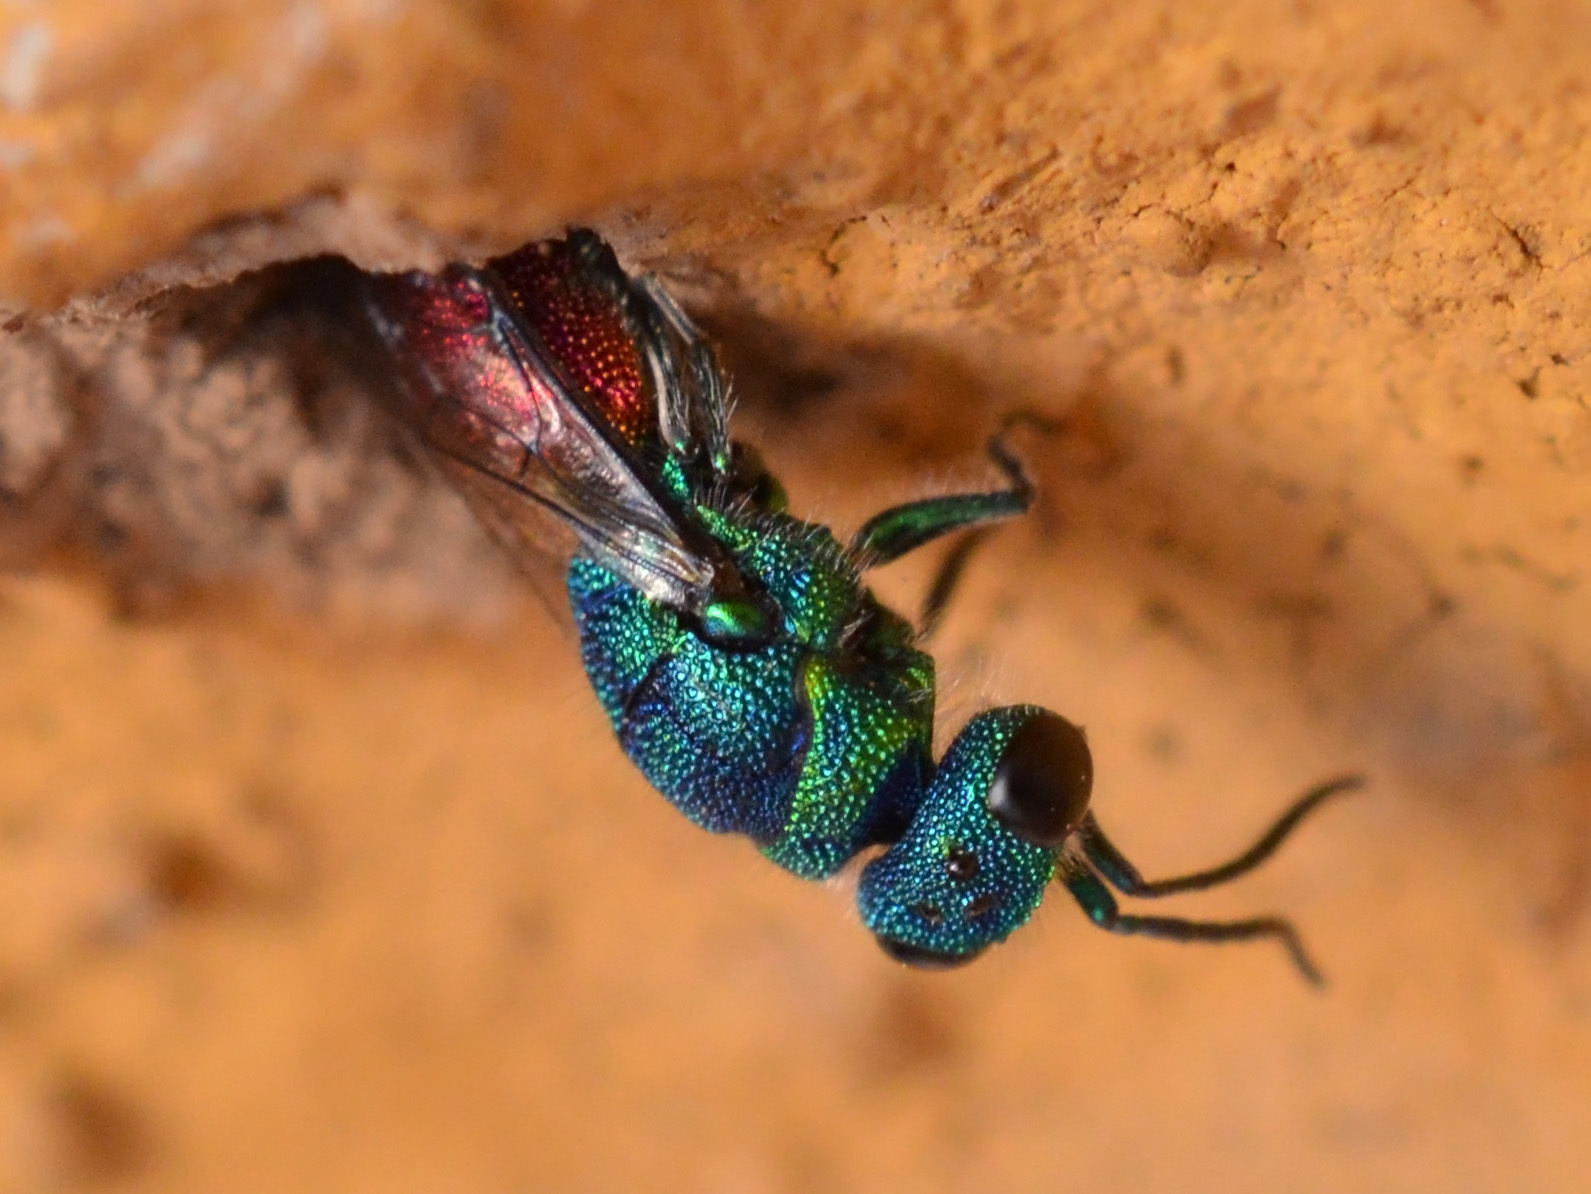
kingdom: Animalia
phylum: Arthropoda
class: Insecta
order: Hymenoptera
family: Chrysididae
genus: Chrysis
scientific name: Chrysis terminata
